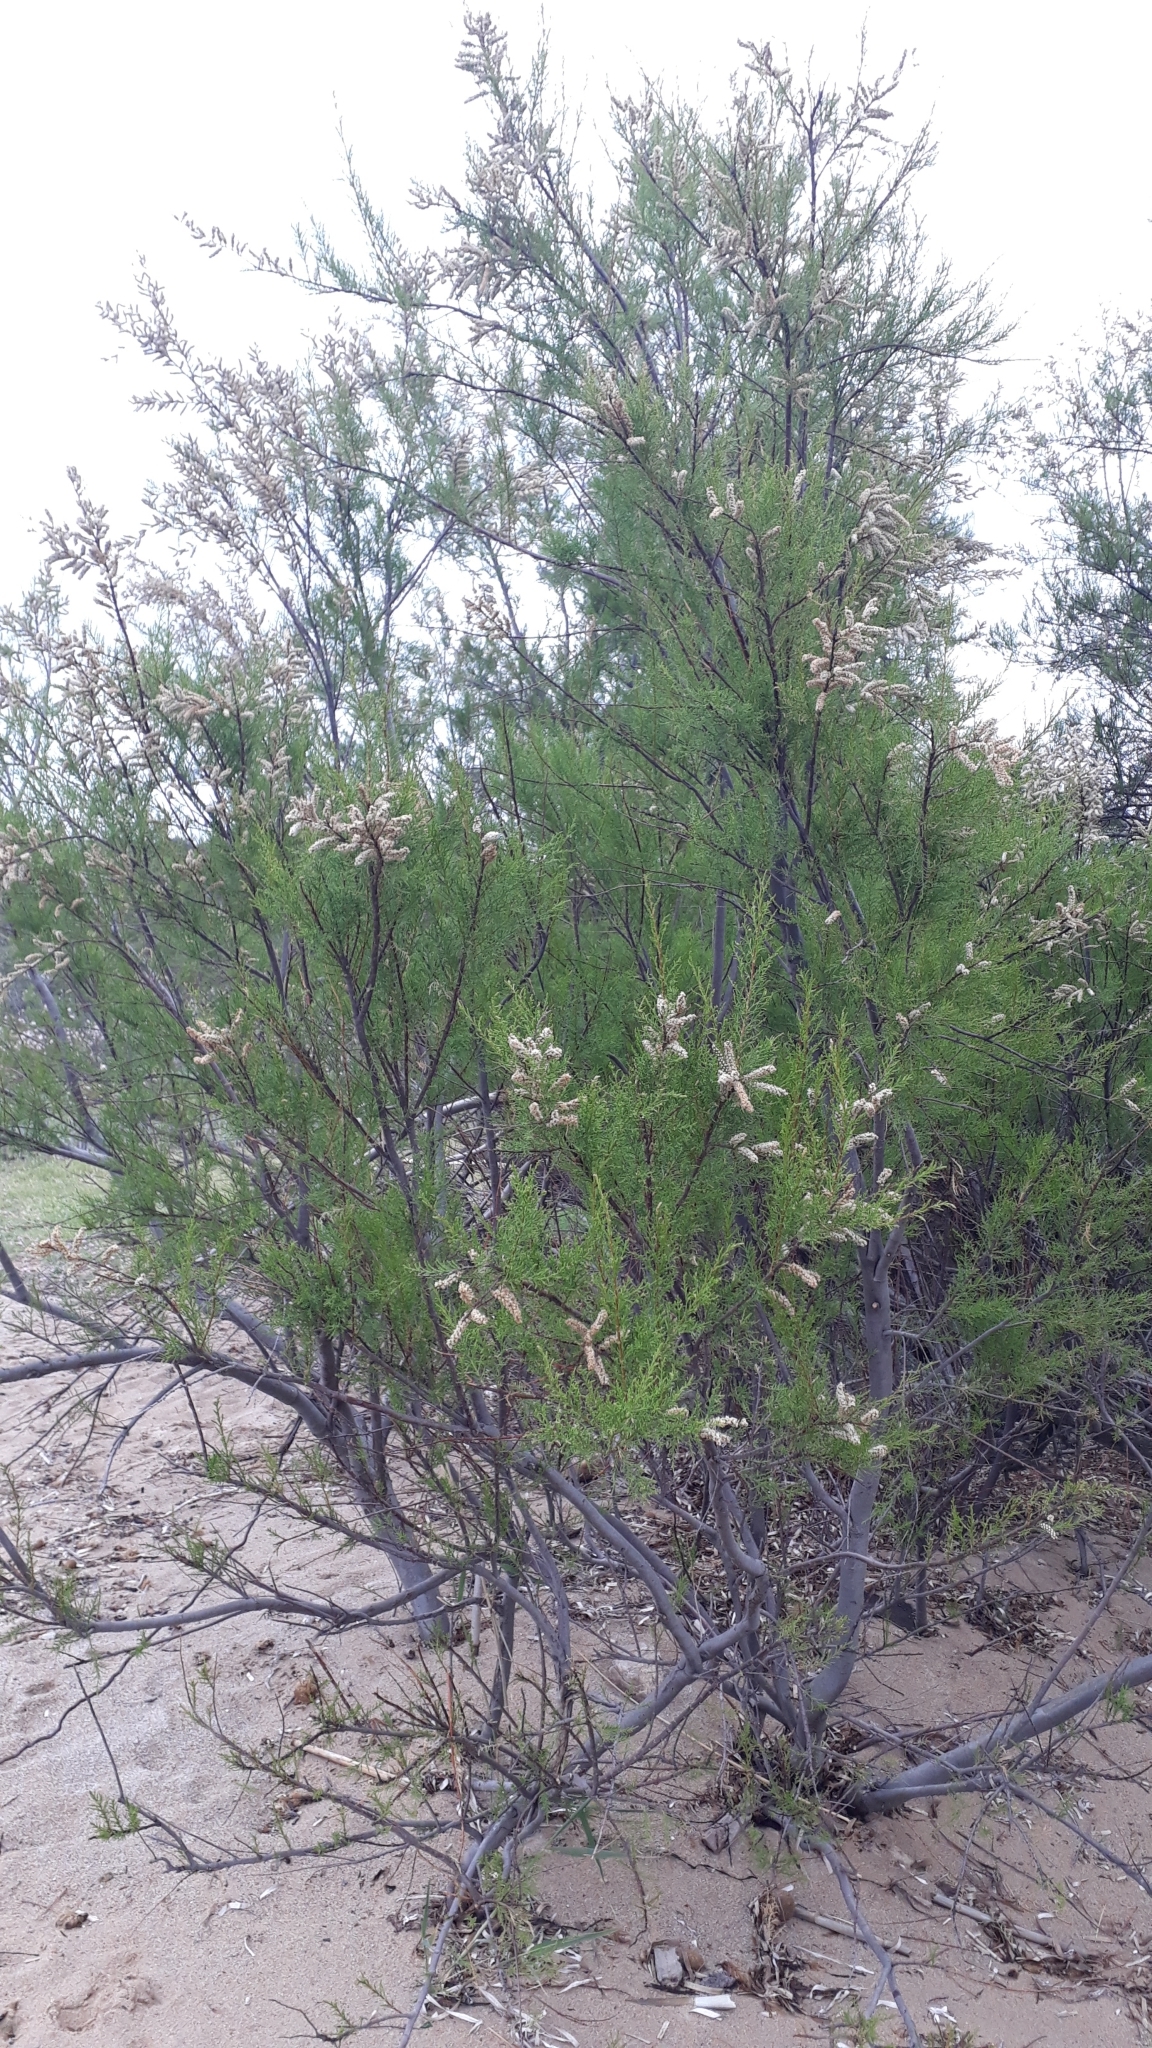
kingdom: Plantae
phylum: Tracheophyta
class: Magnoliopsida
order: Caryophyllales
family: Tamaricaceae
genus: Tamarix
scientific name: Tamarix africana
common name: African tamarisk
